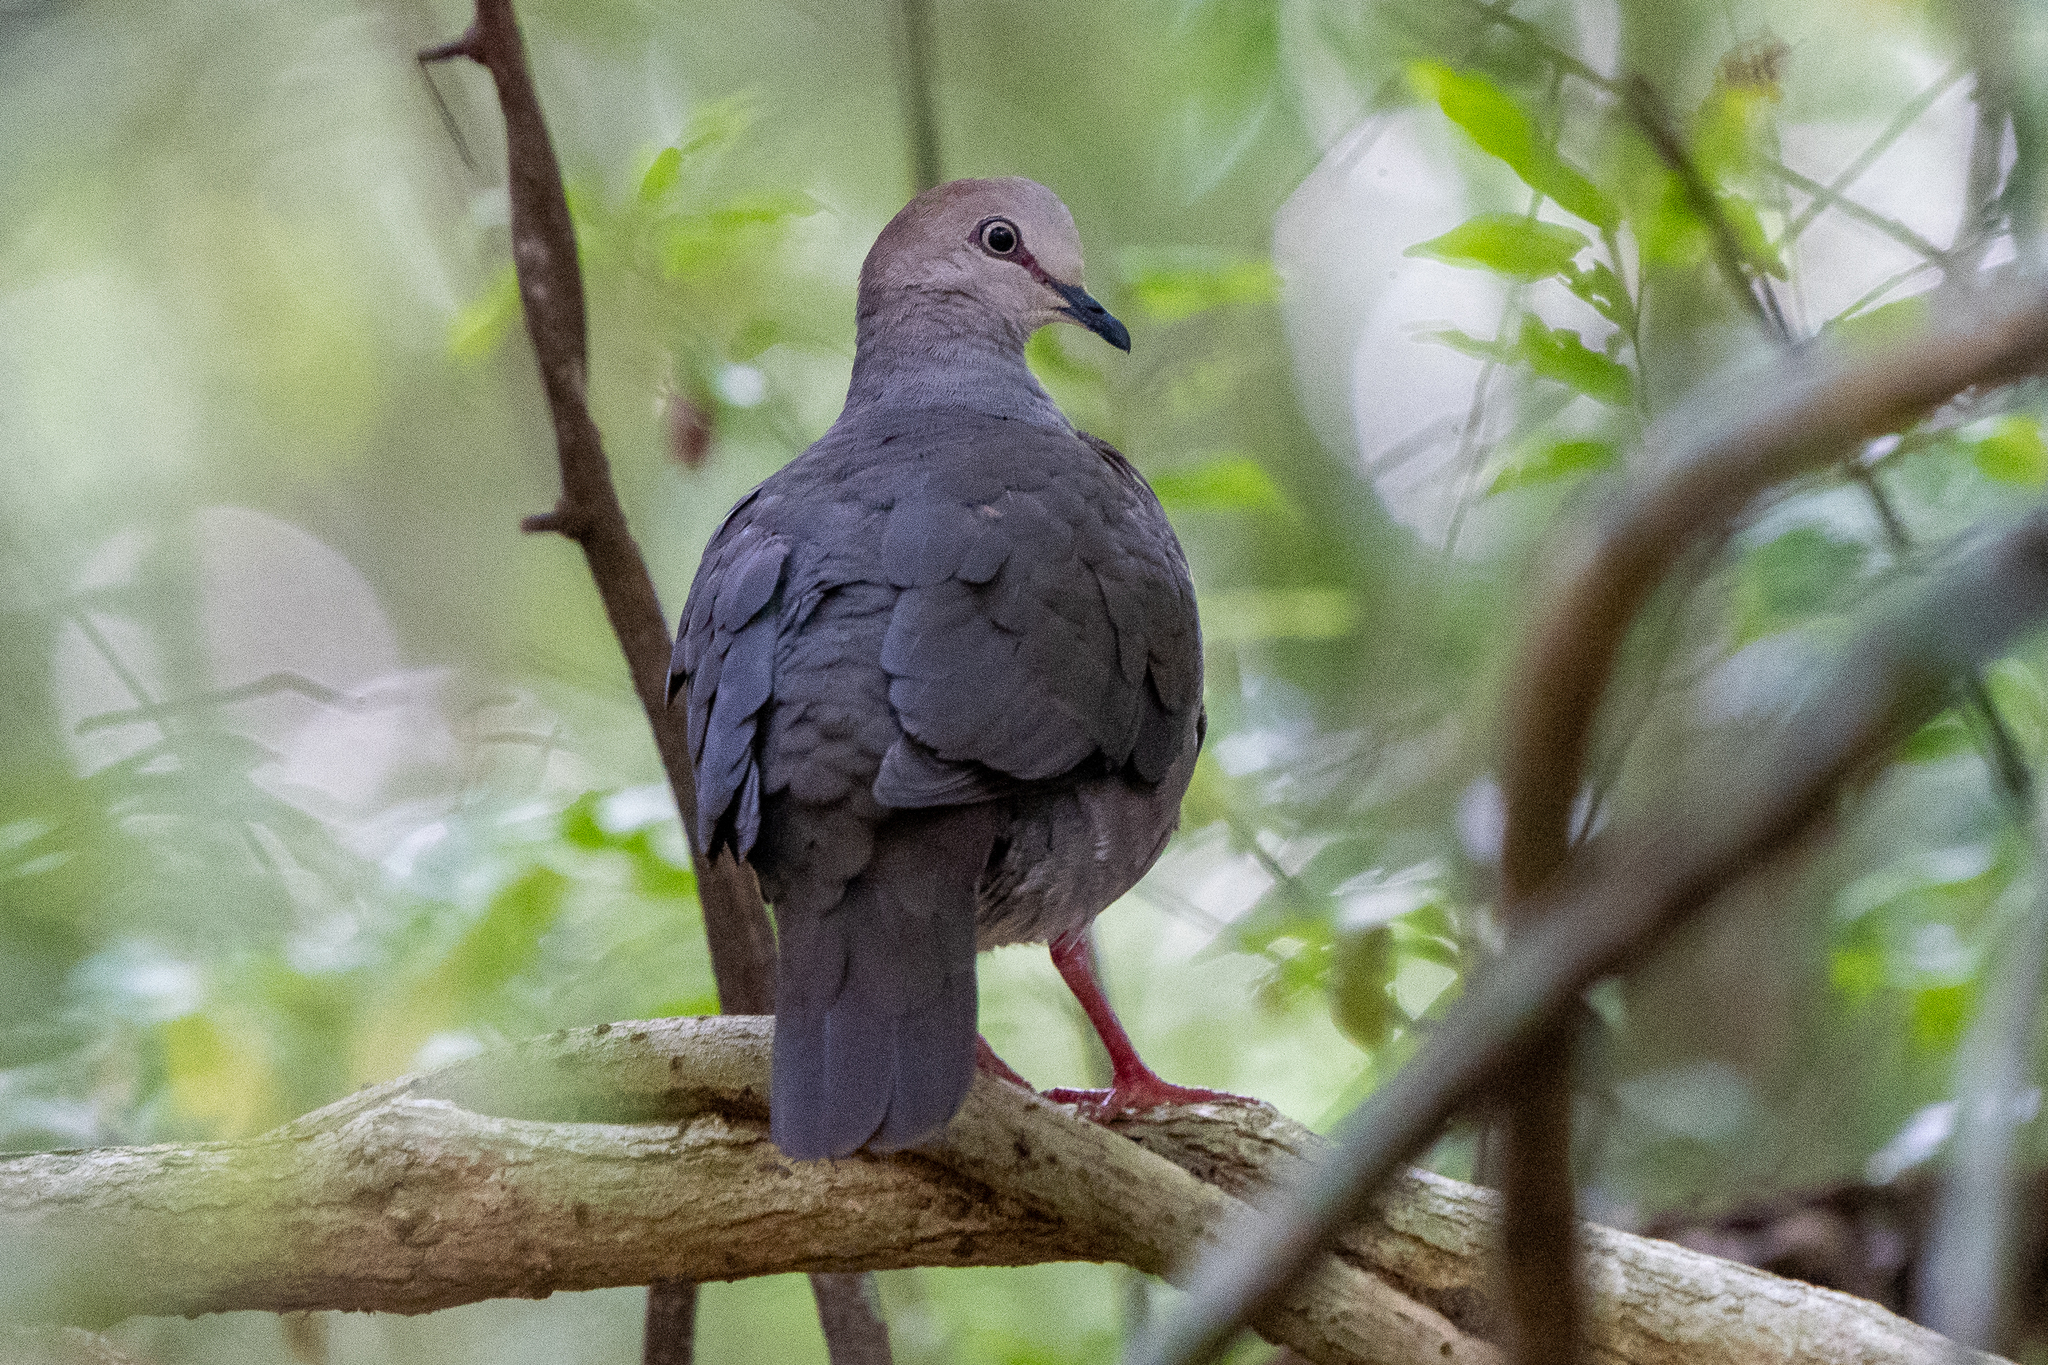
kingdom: Animalia
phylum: Chordata
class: Aves
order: Columbiformes
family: Columbidae
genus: Leptotila
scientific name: Leptotila cassinii
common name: Grey-chested dove
